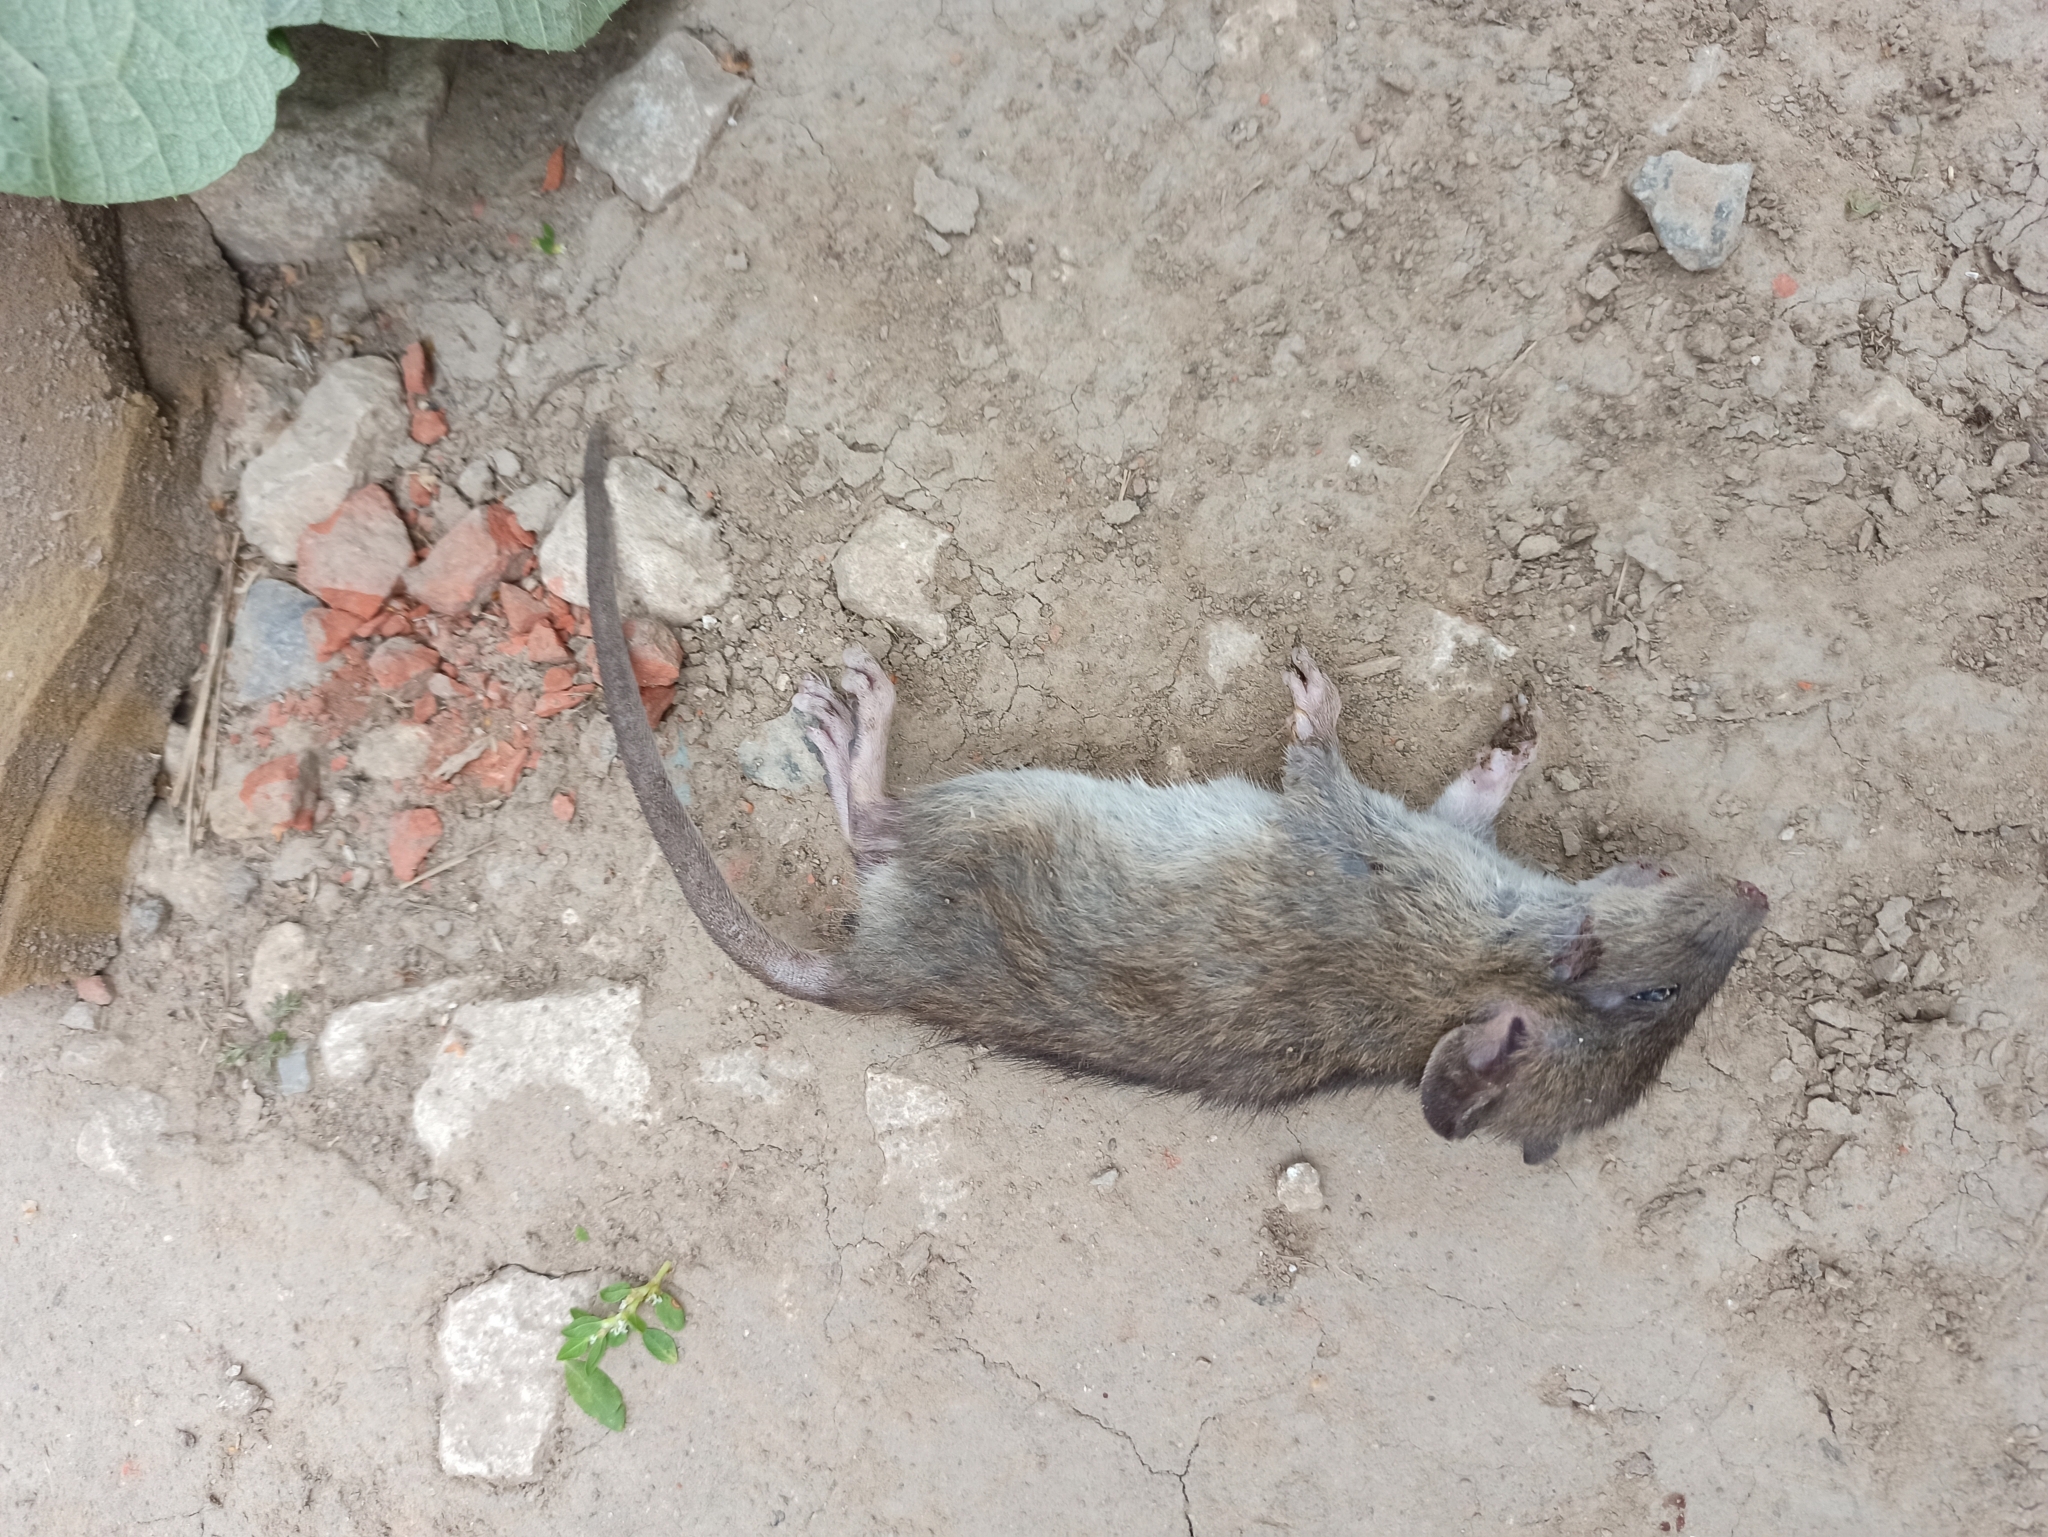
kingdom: Animalia
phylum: Chordata
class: Mammalia
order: Rodentia
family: Muridae
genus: Rattus
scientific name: Rattus norvegicus
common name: Brown rat
